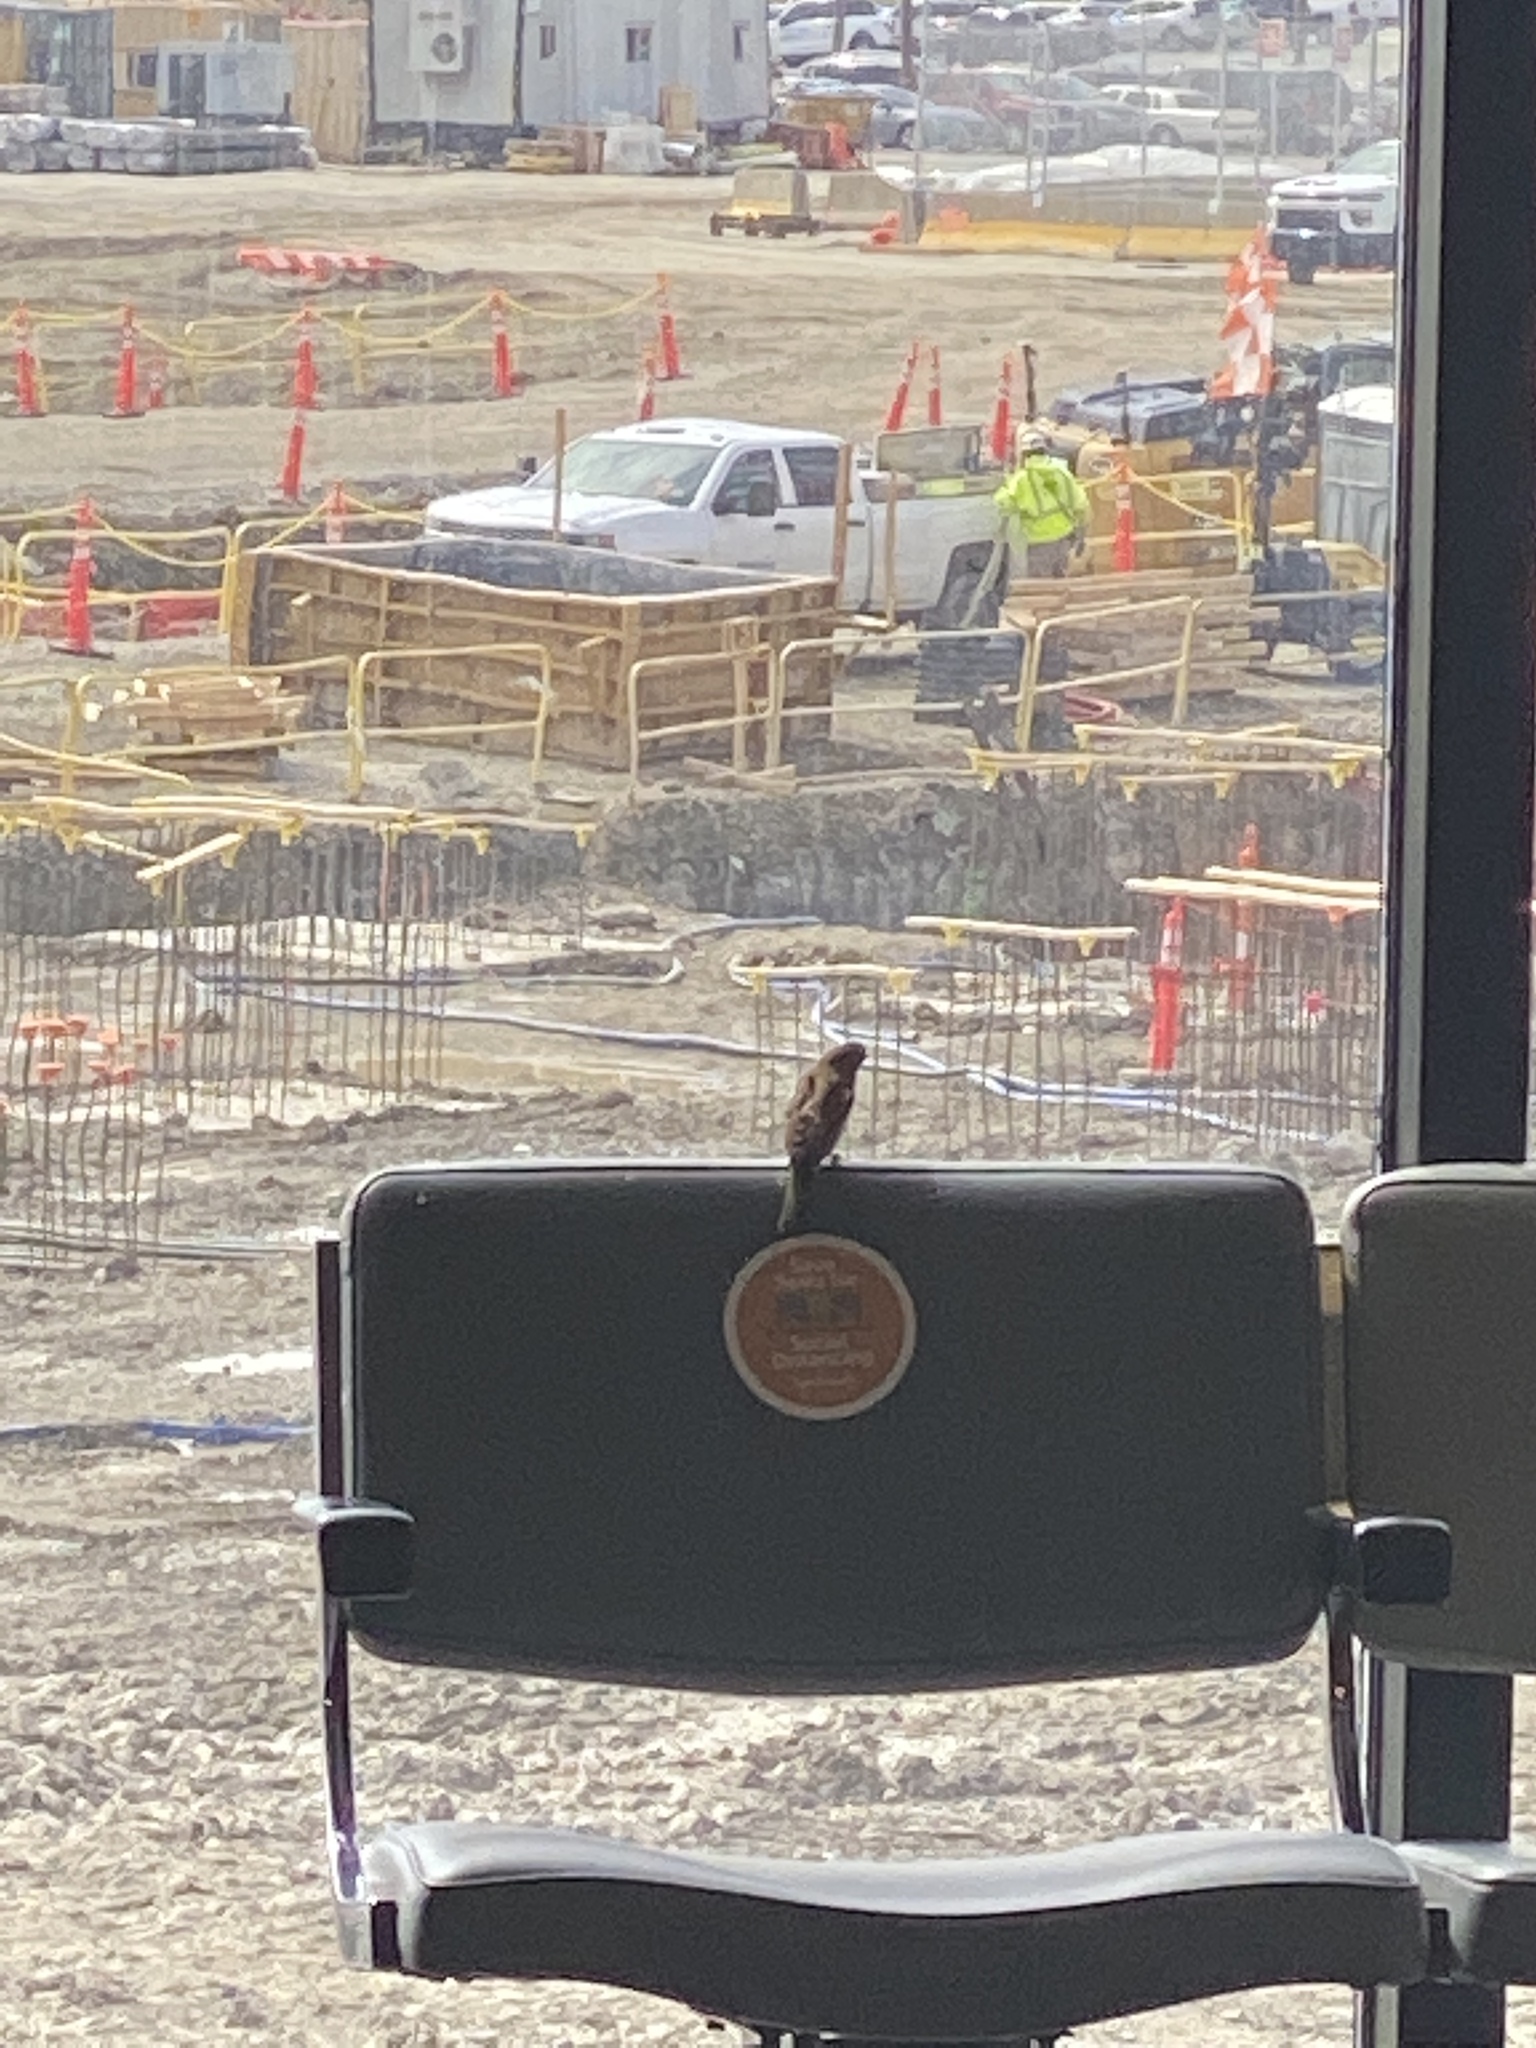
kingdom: Animalia
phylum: Chordata
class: Aves
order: Passeriformes
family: Passeridae
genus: Passer
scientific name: Passer domesticus
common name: House sparrow
